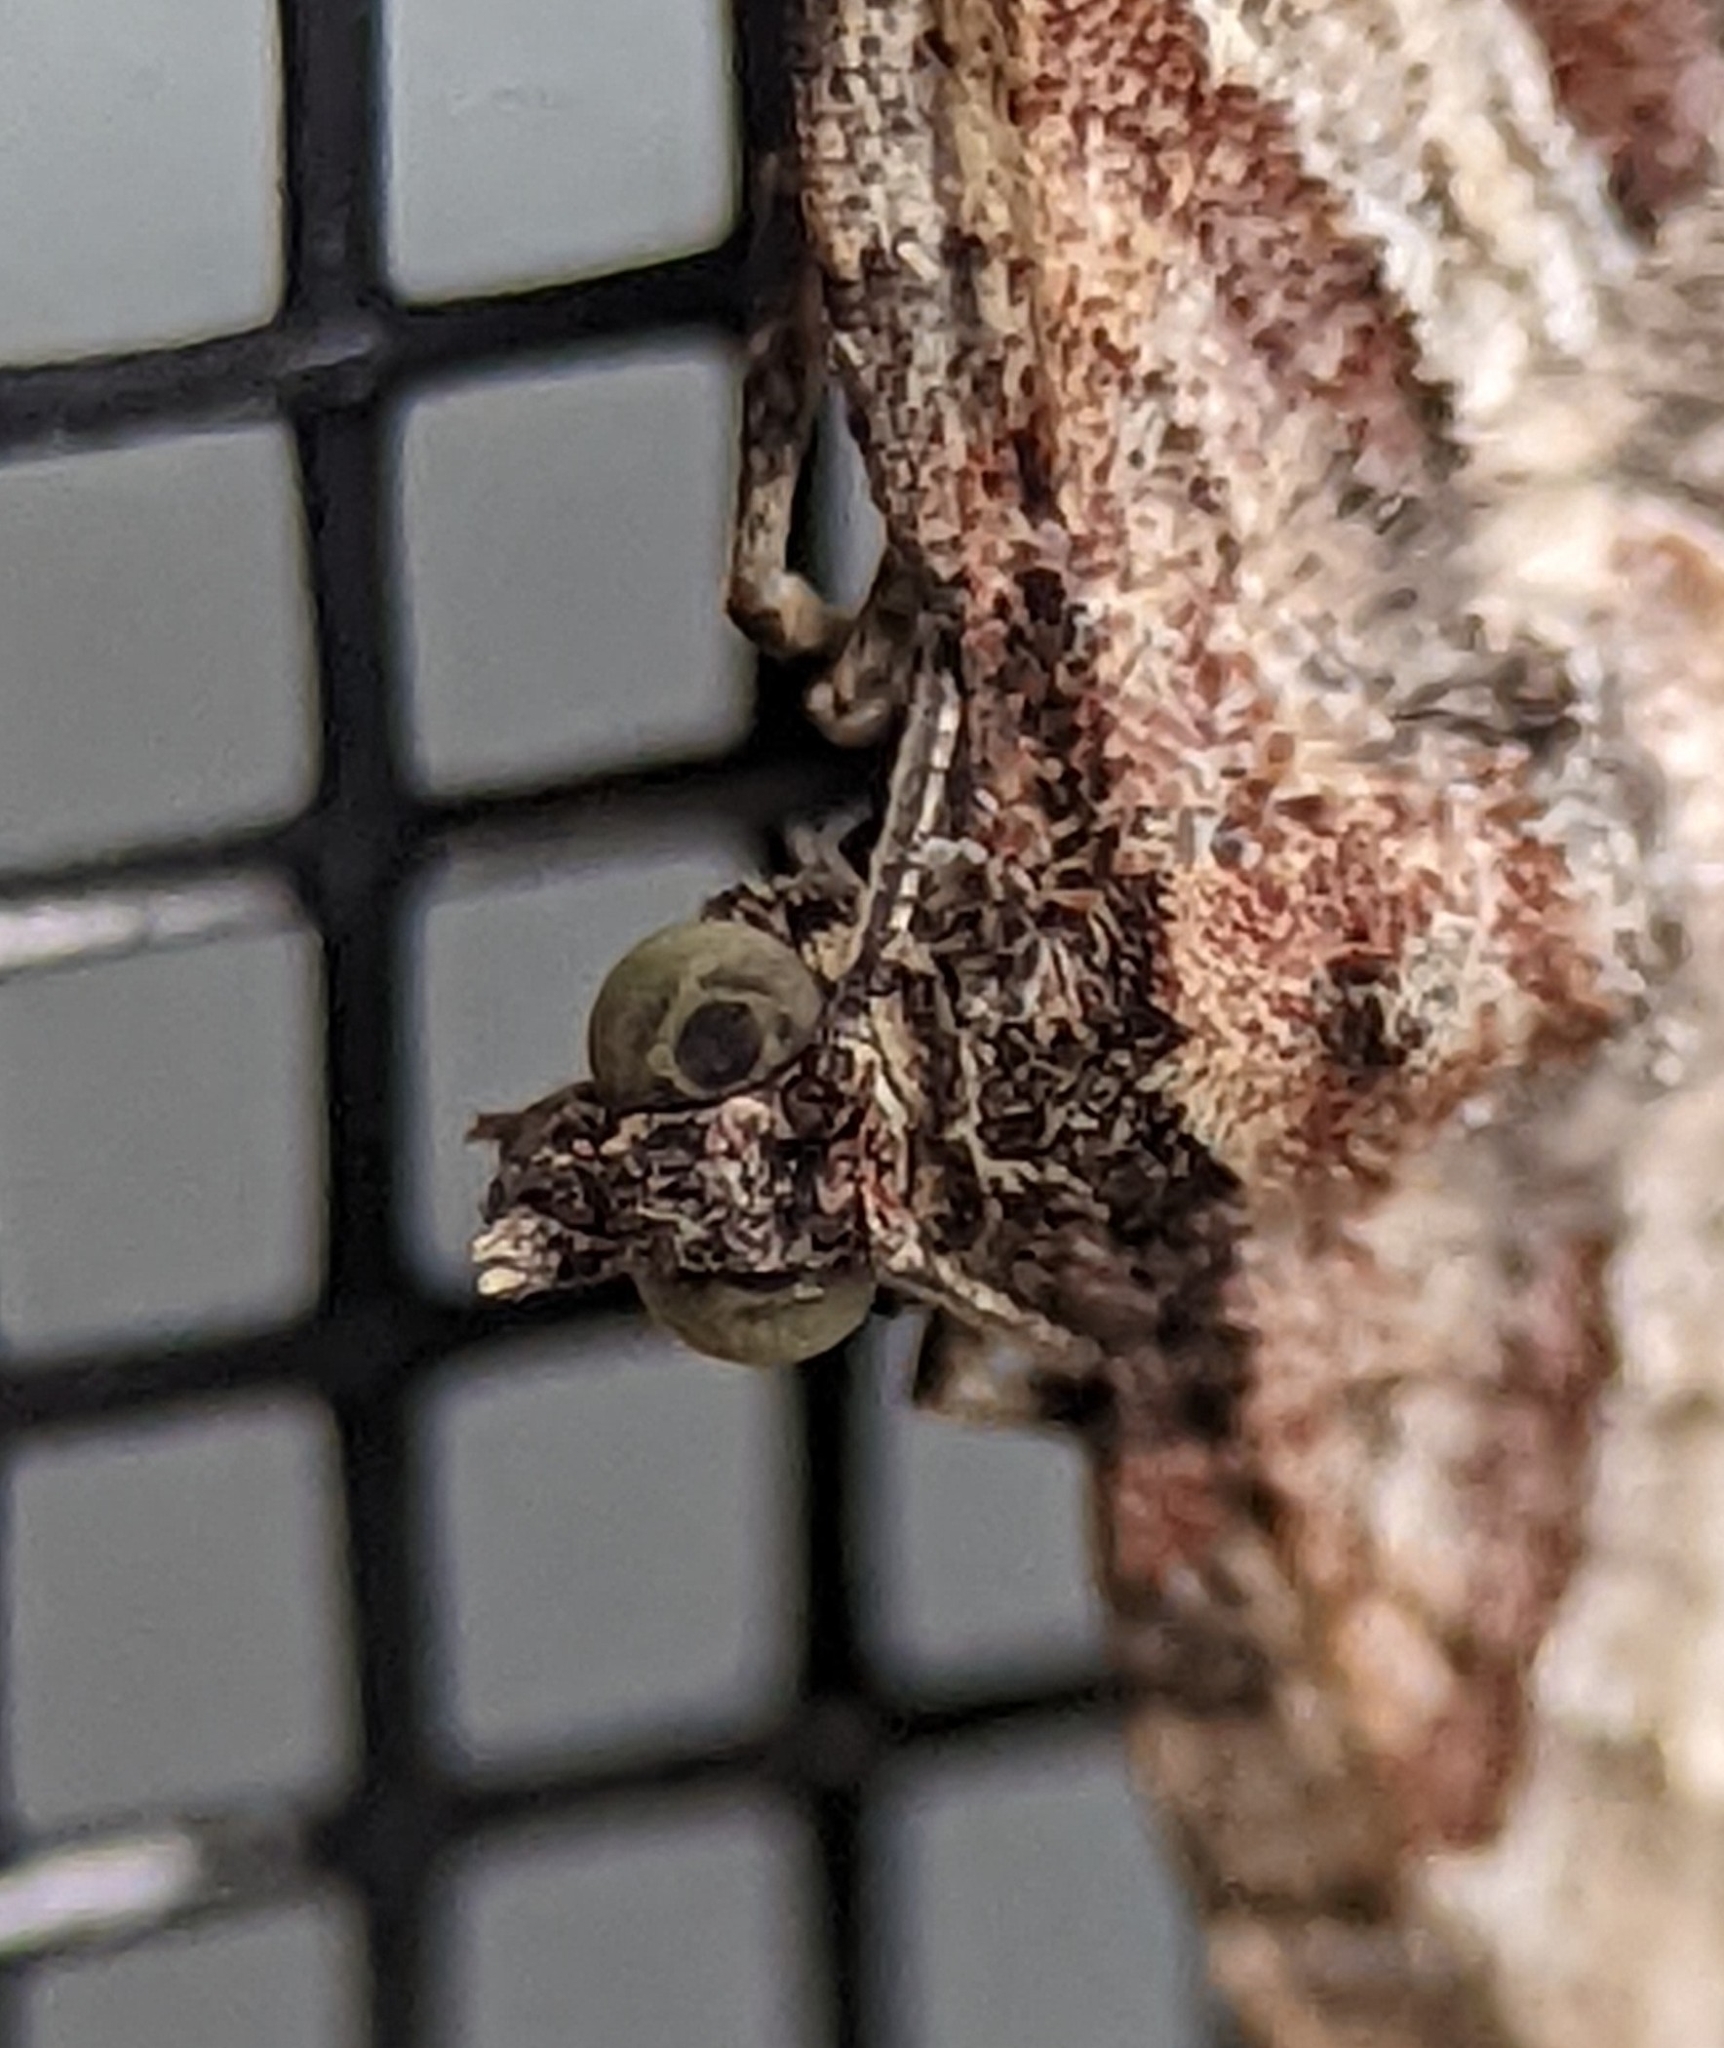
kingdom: Animalia
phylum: Arthropoda
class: Insecta
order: Lepidoptera
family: Geometridae
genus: Costaconvexa
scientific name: Costaconvexa centrostrigaria
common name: Bent-line carpet
